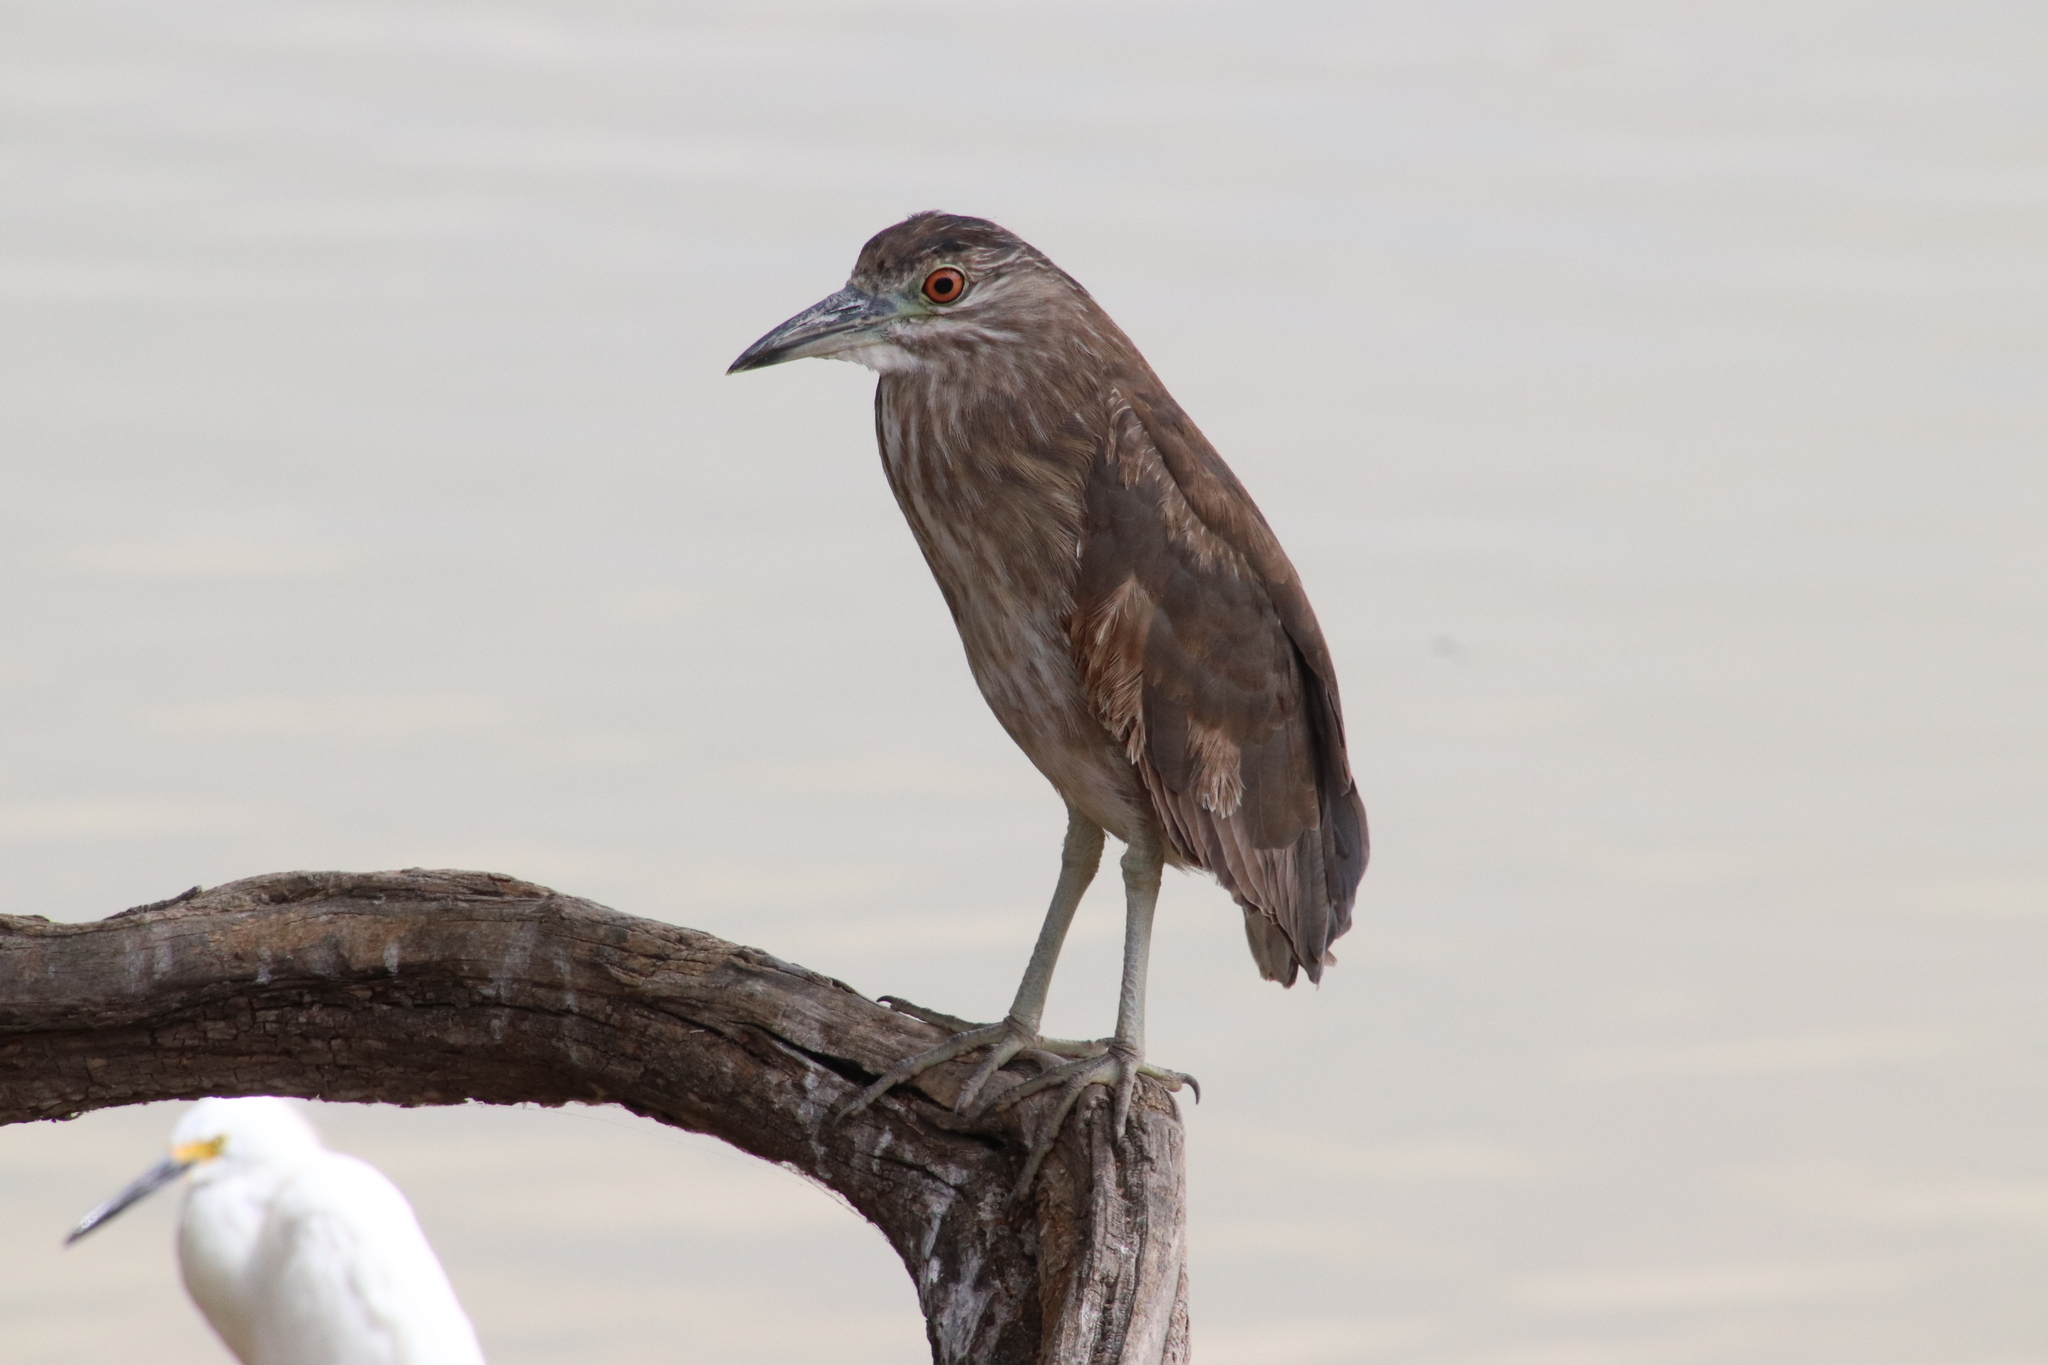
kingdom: Animalia
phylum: Chordata
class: Aves
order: Pelecaniformes
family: Ardeidae
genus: Nycticorax
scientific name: Nycticorax nycticorax
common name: Black-crowned night heron
